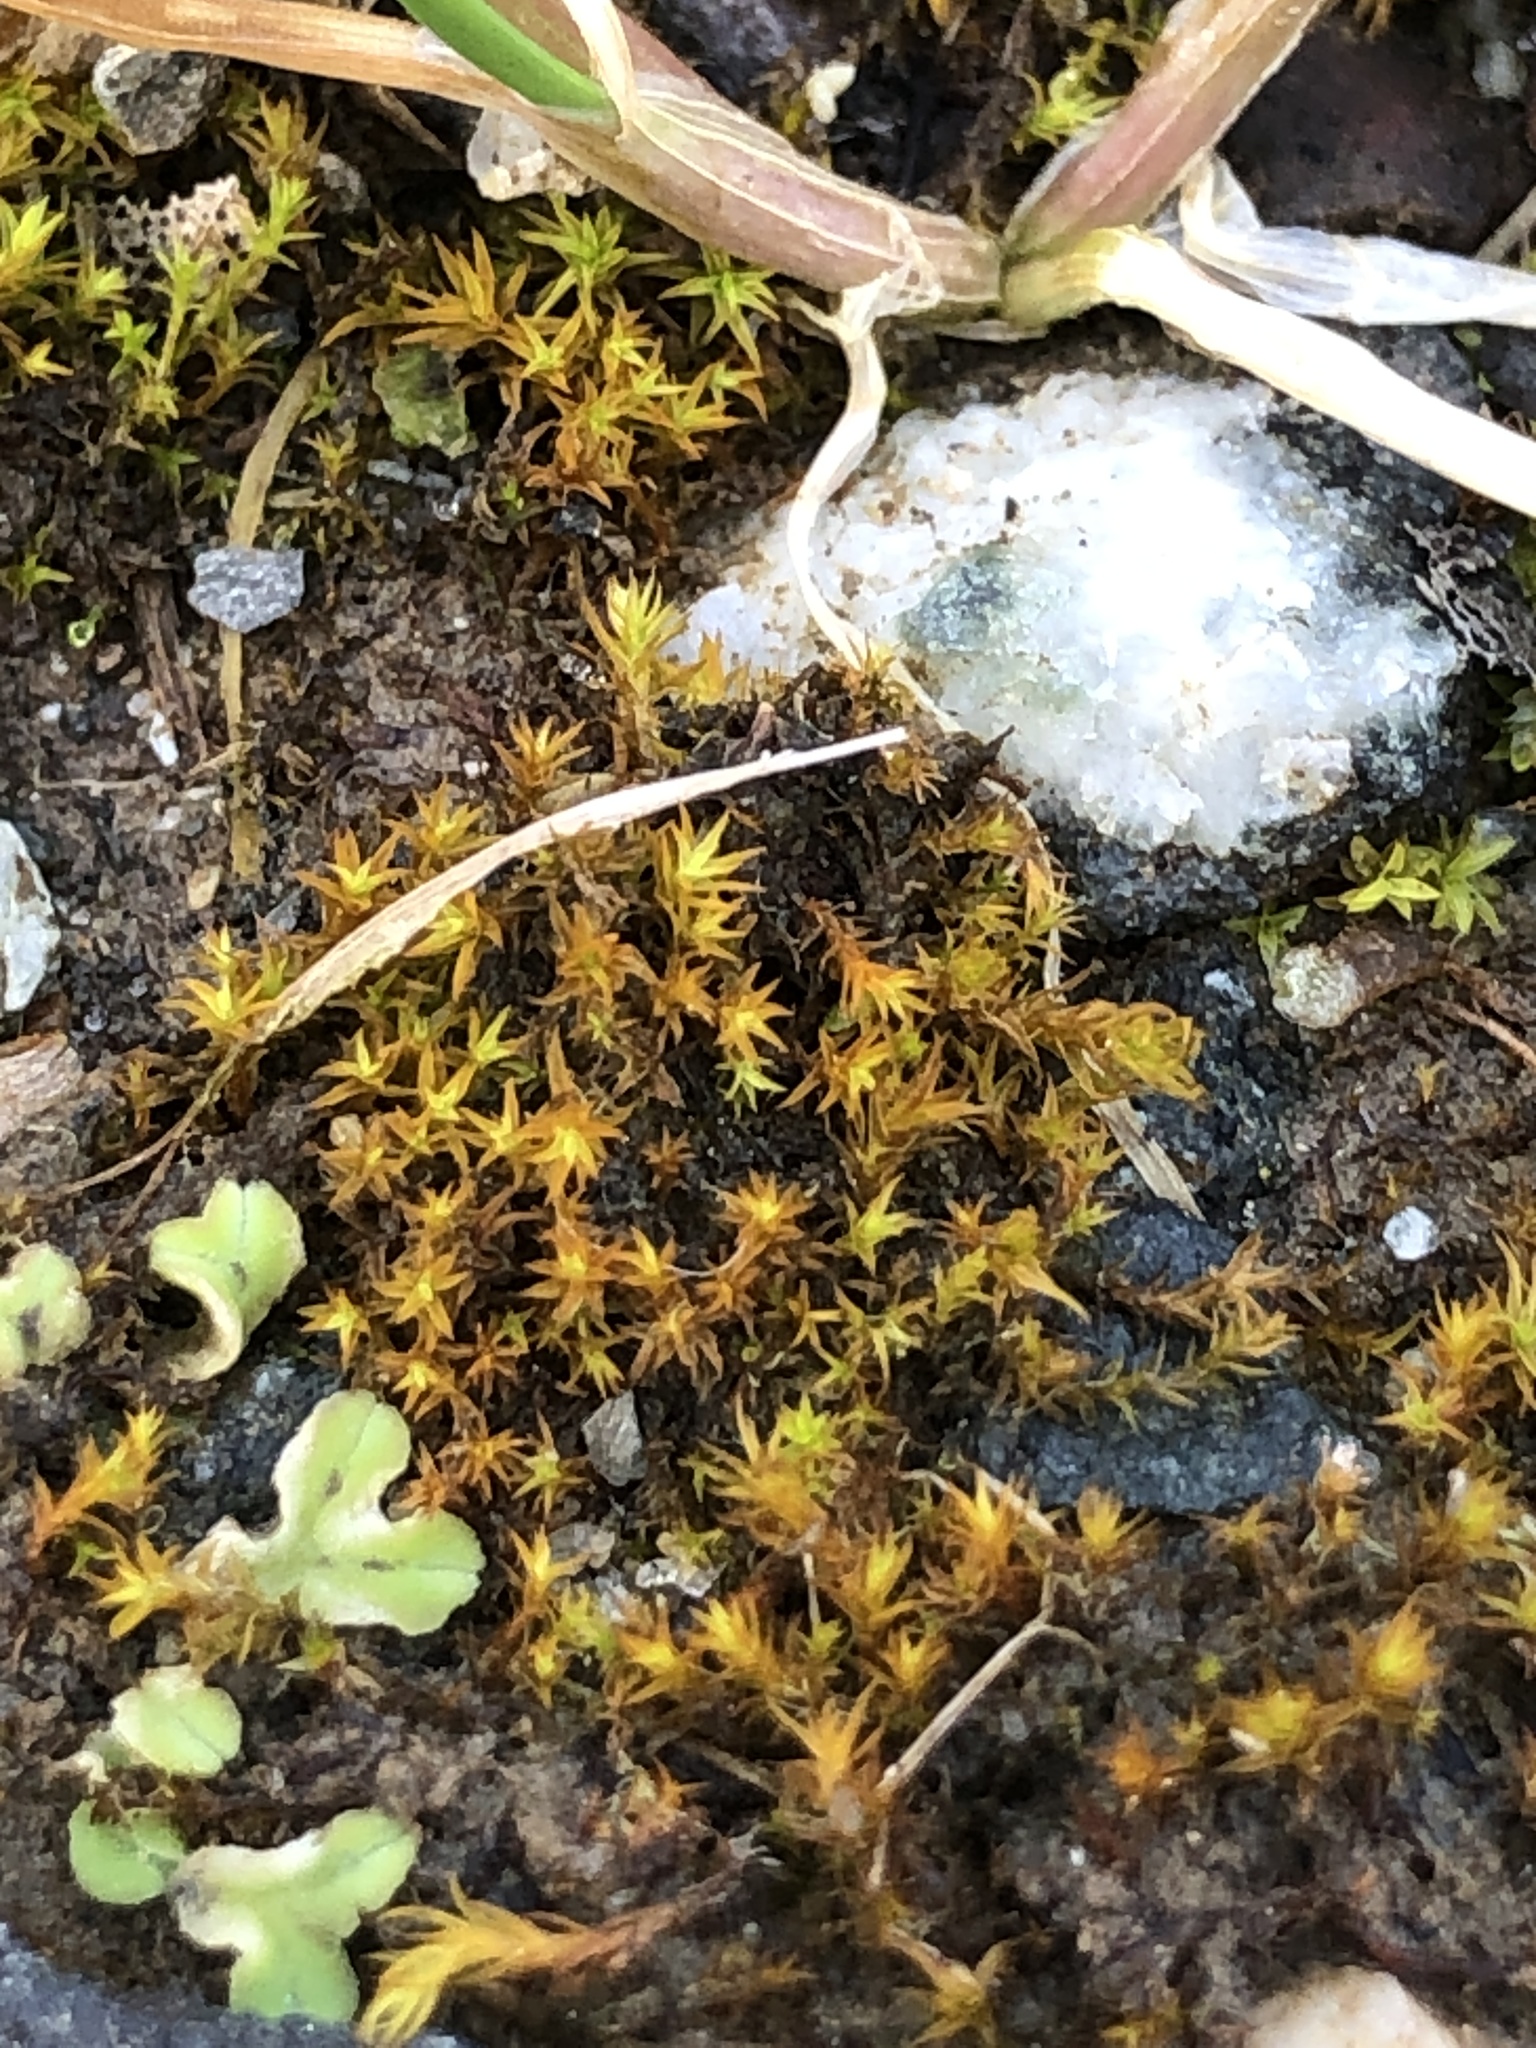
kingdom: Plantae
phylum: Bryophyta
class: Bryopsida
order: Pottiales
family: Pottiaceae
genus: Bryoerythrophyllum
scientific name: Bryoerythrophyllum ferruginascens
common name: Rufous beard-moss
